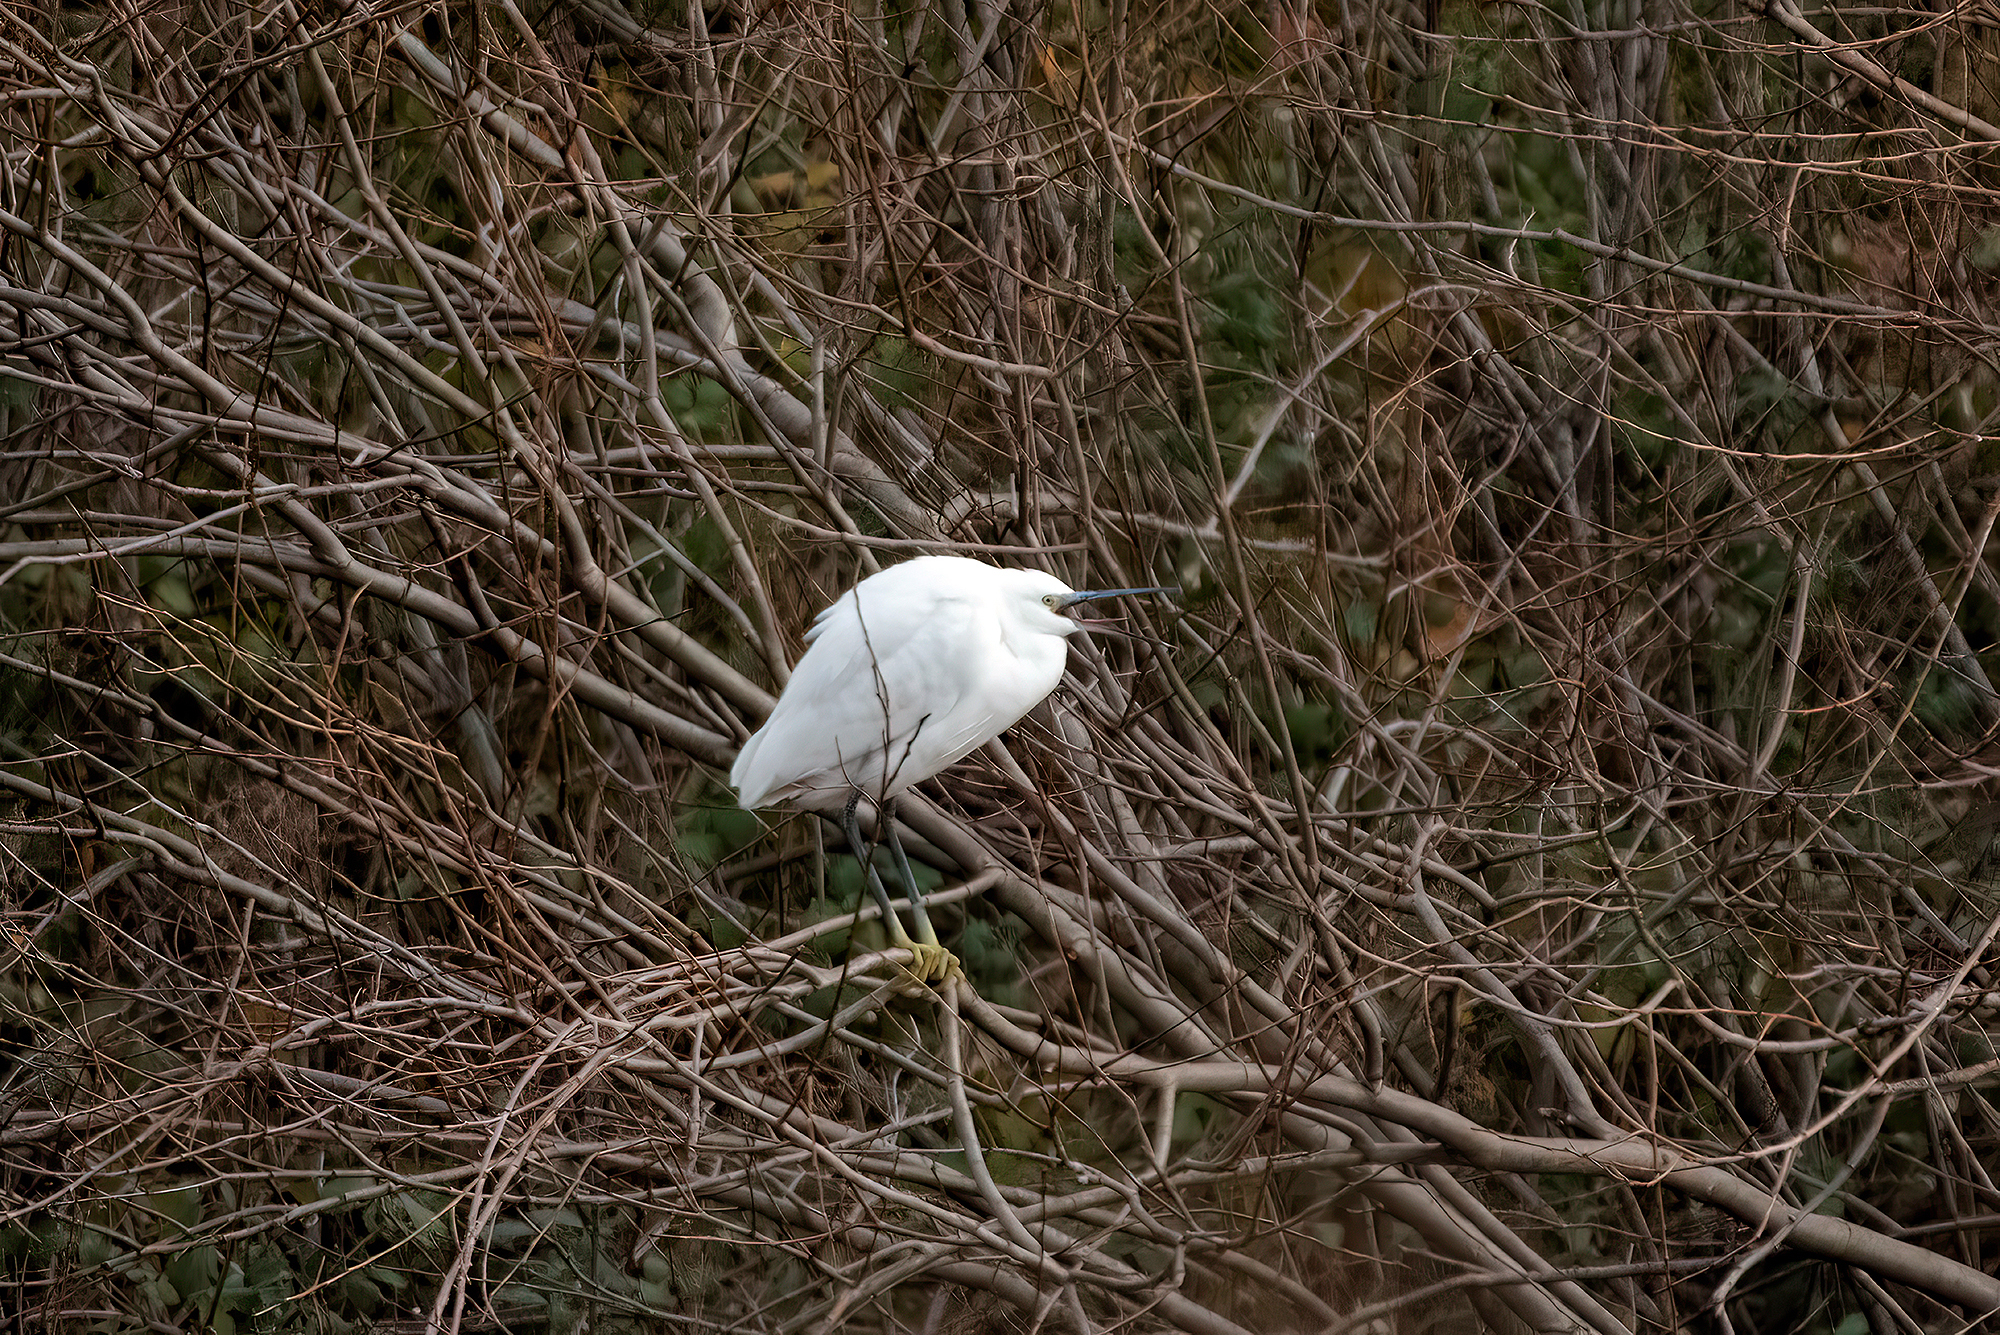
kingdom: Animalia
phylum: Chordata
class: Aves
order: Pelecaniformes
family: Ardeidae
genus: Egretta
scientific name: Egretta garzetta
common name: Little egret
